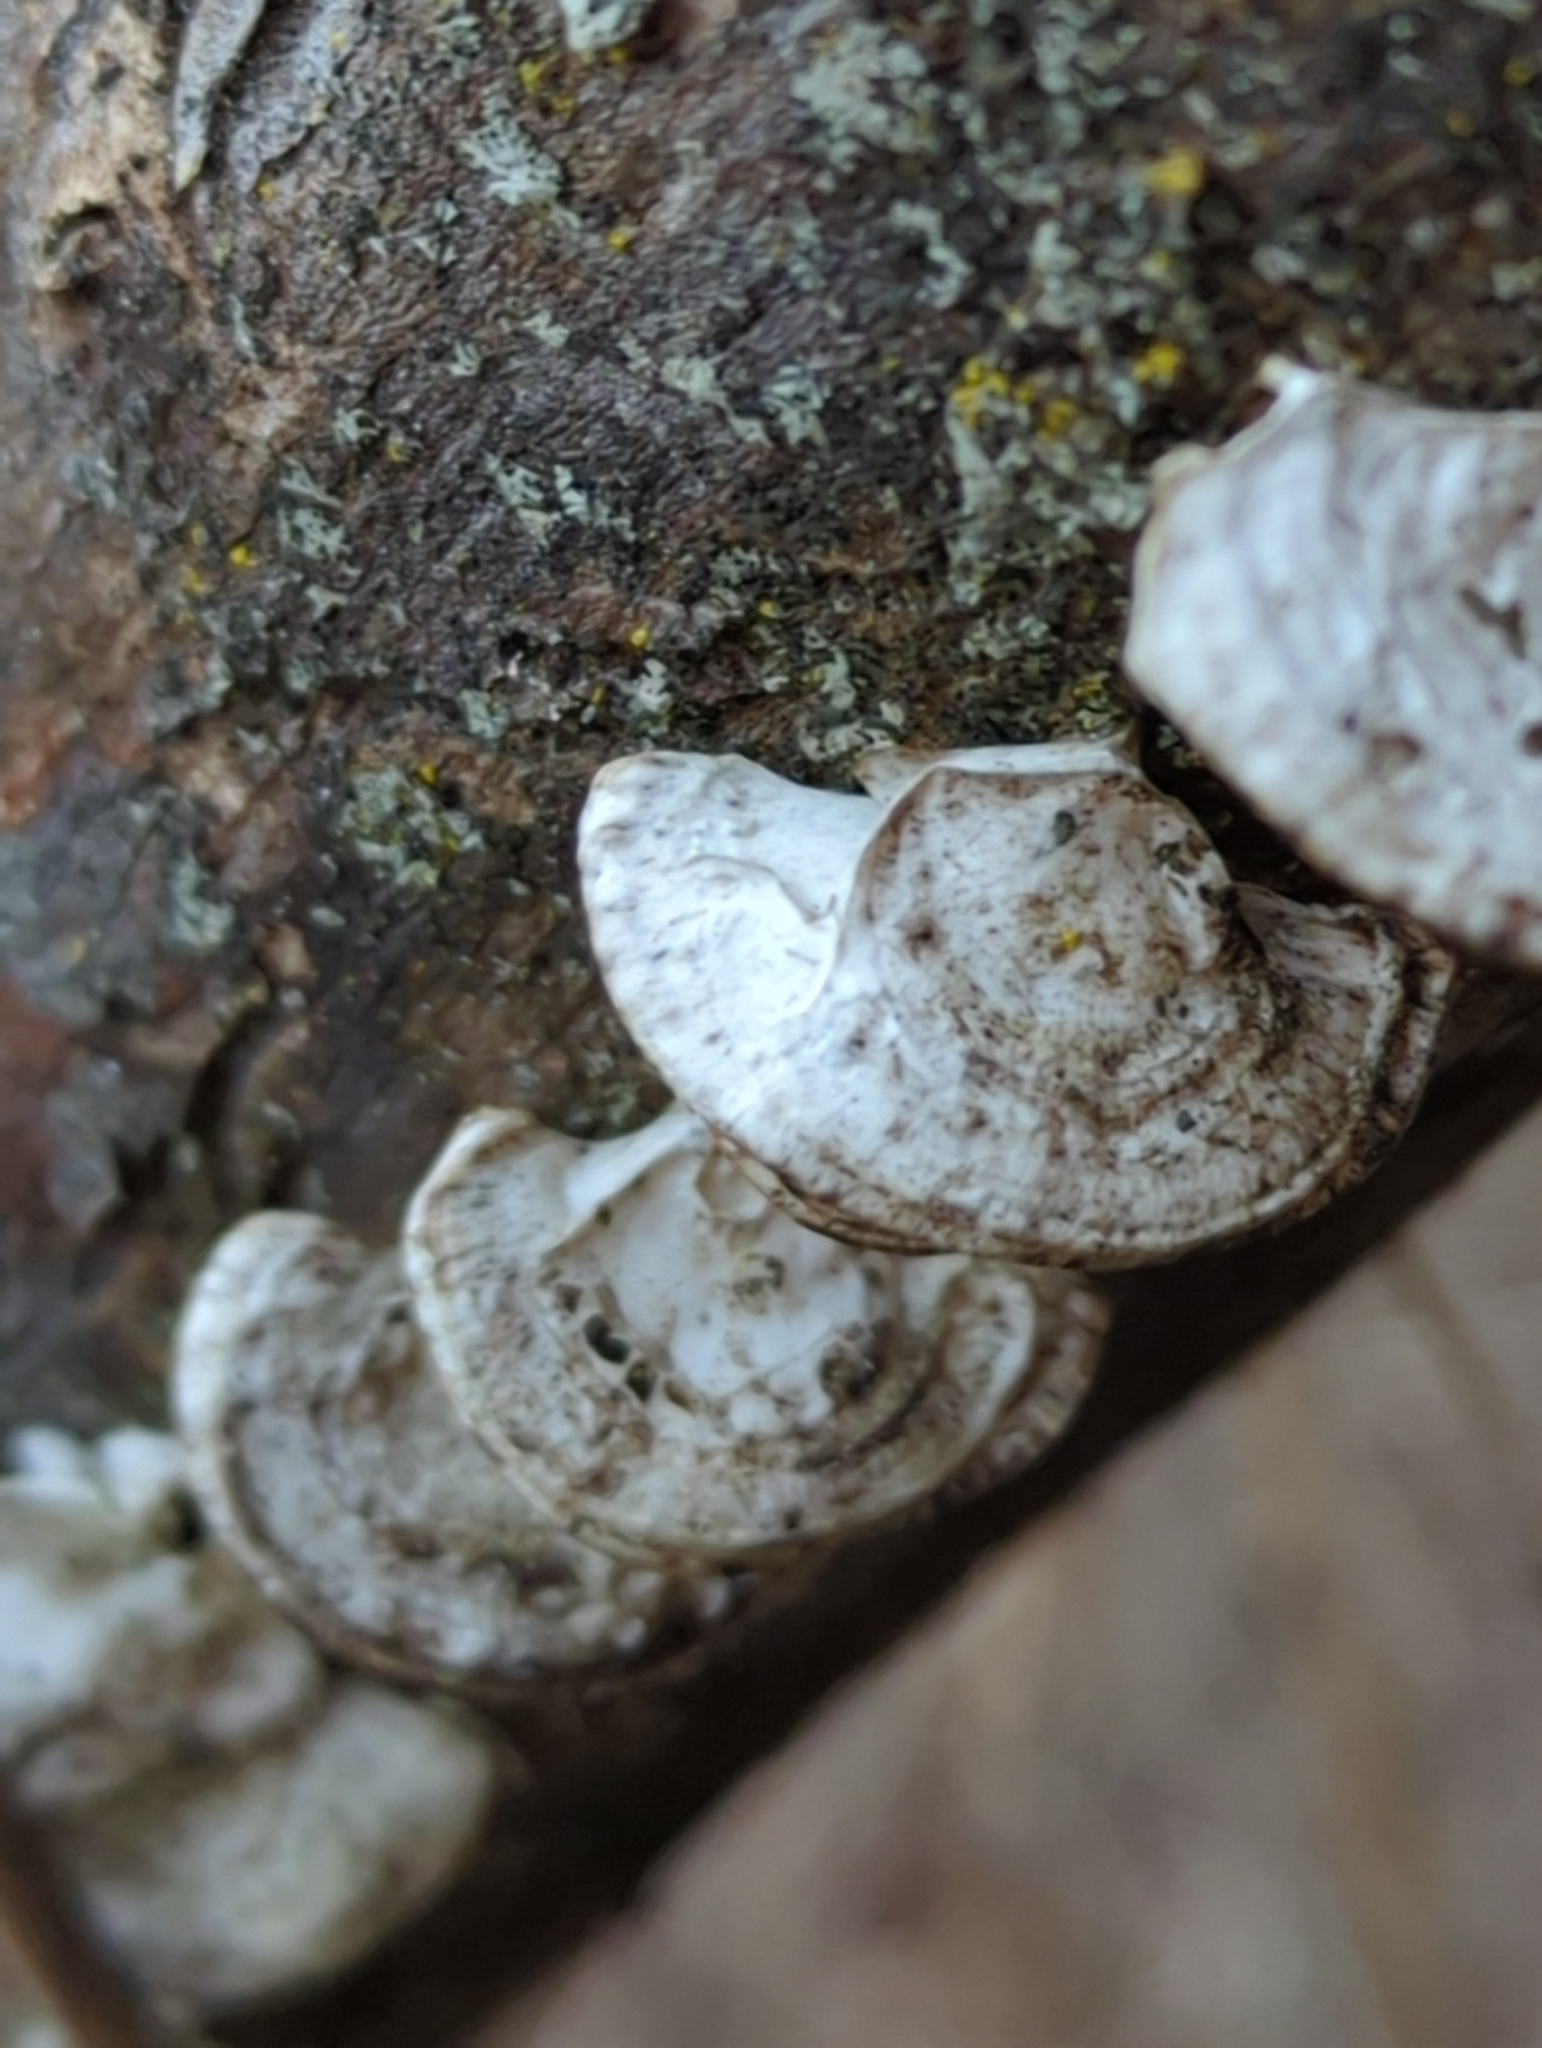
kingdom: Fungi
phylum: Basidiomycota
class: Agaricomycetes
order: Polyporales
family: Polyporaceae
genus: Poronidulus
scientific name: Poronidulus conchifer
